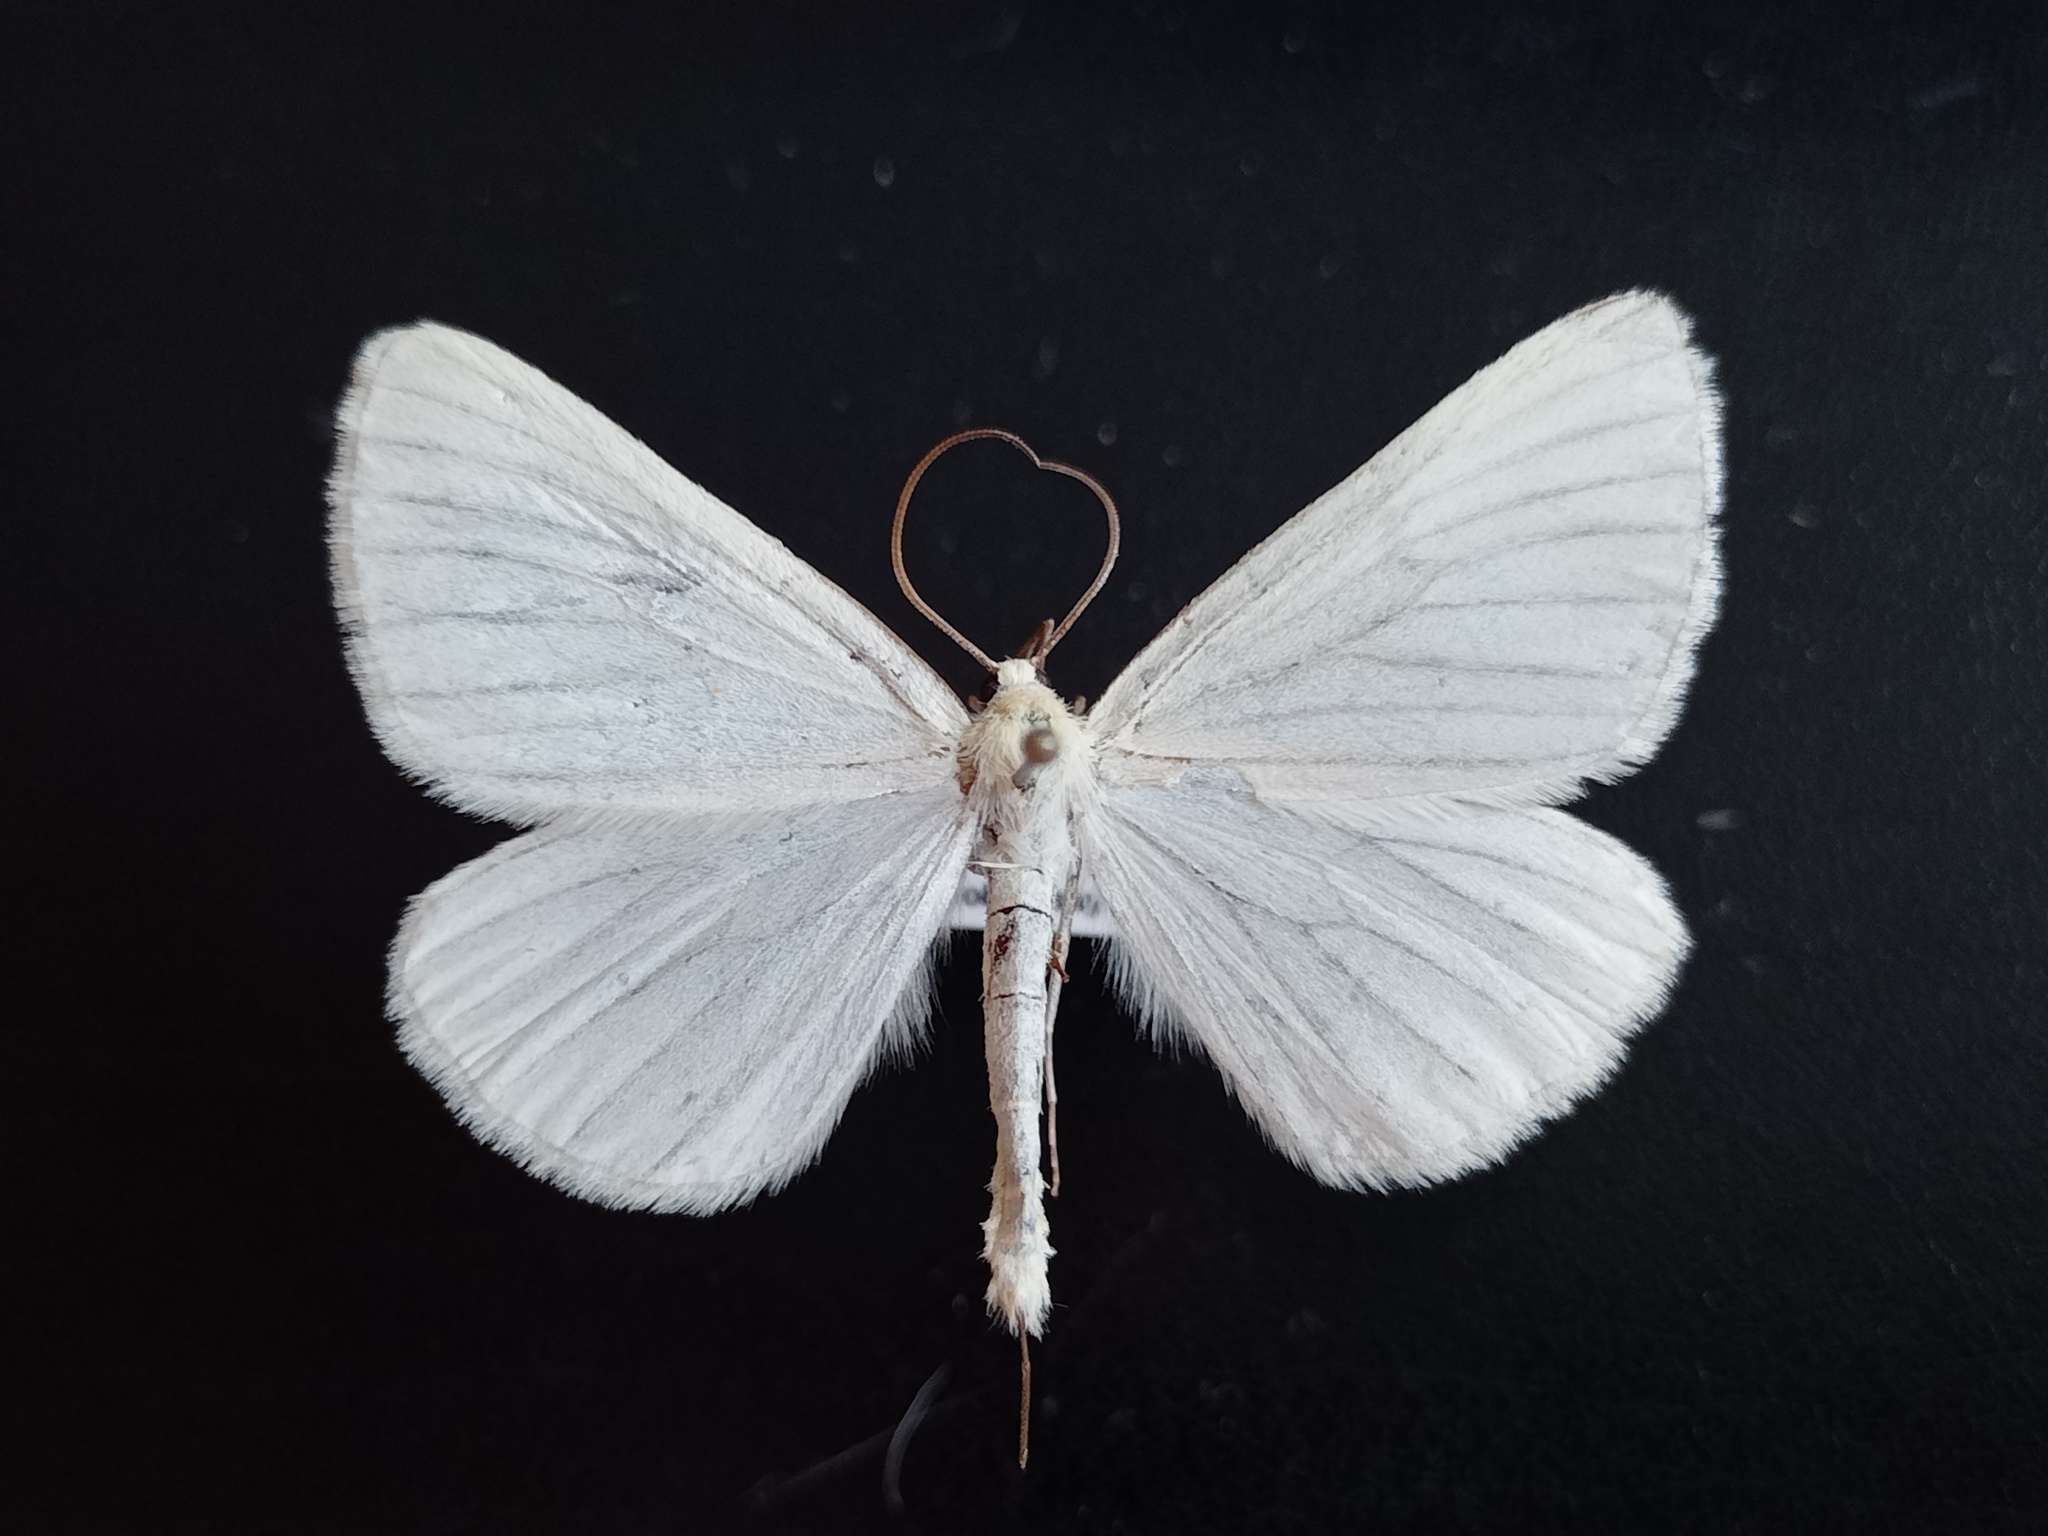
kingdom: Animalia
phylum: Arthropoda
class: Insecta
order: Lepidoptera
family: Geometridae
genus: Siona
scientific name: Siona lineata
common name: Black-veined moth
